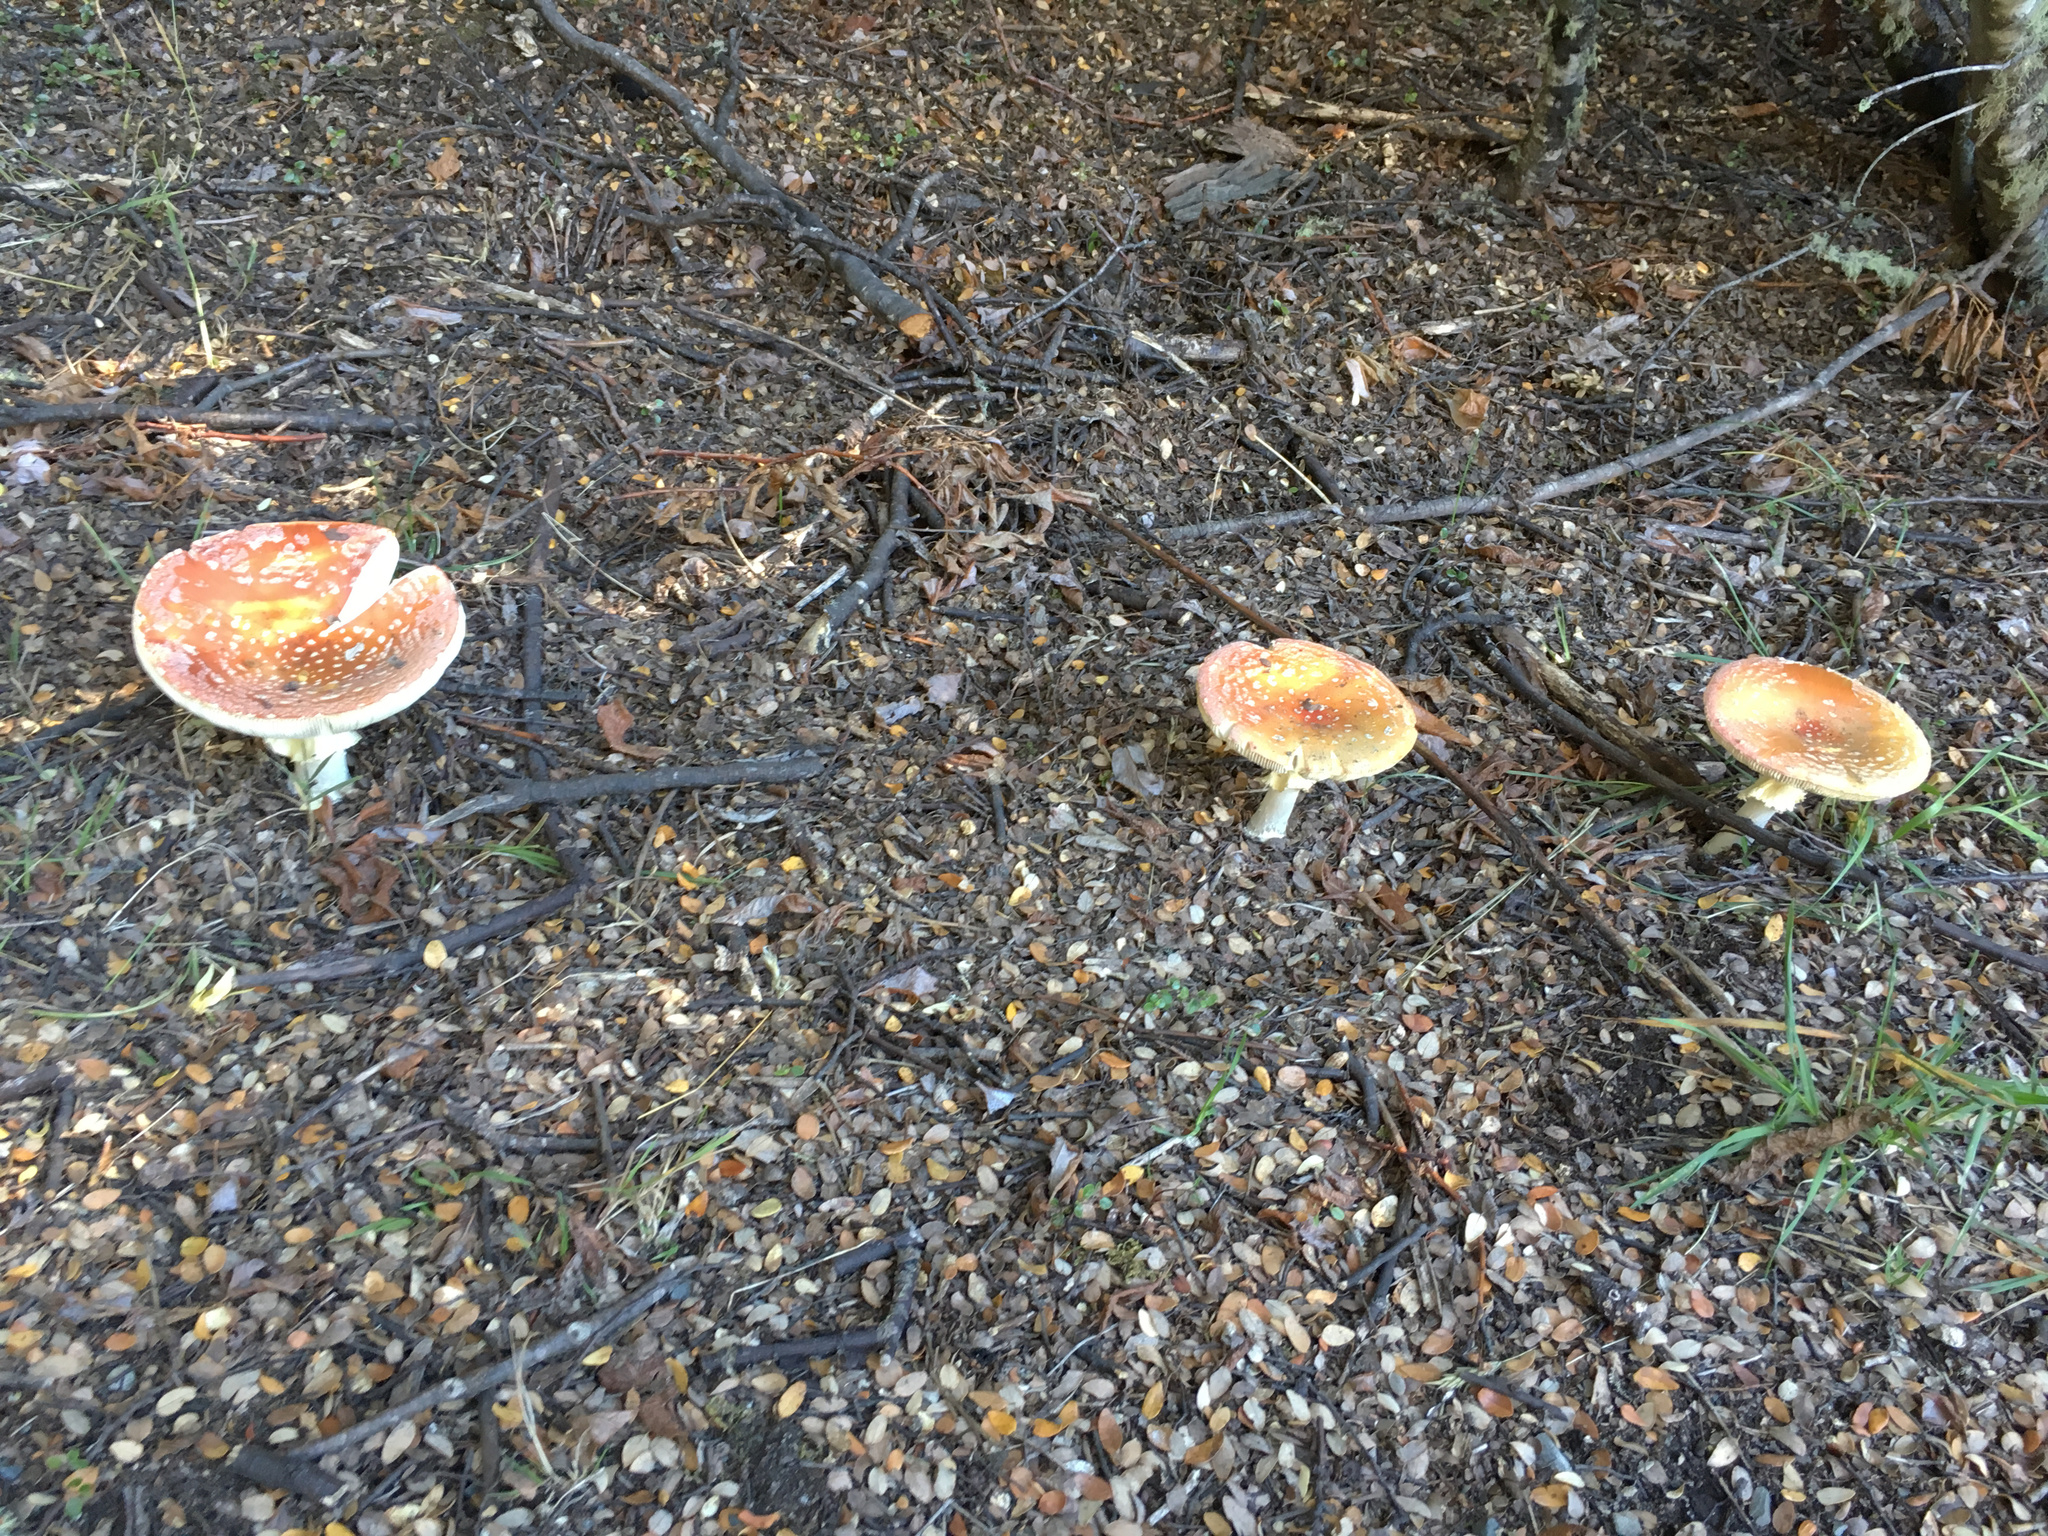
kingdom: Fungi
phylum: Basidiomycota
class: Agaricomycetes
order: Agaricales
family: Amanitaceae
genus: Amanita
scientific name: Amanita muscaria
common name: Fly agaric
